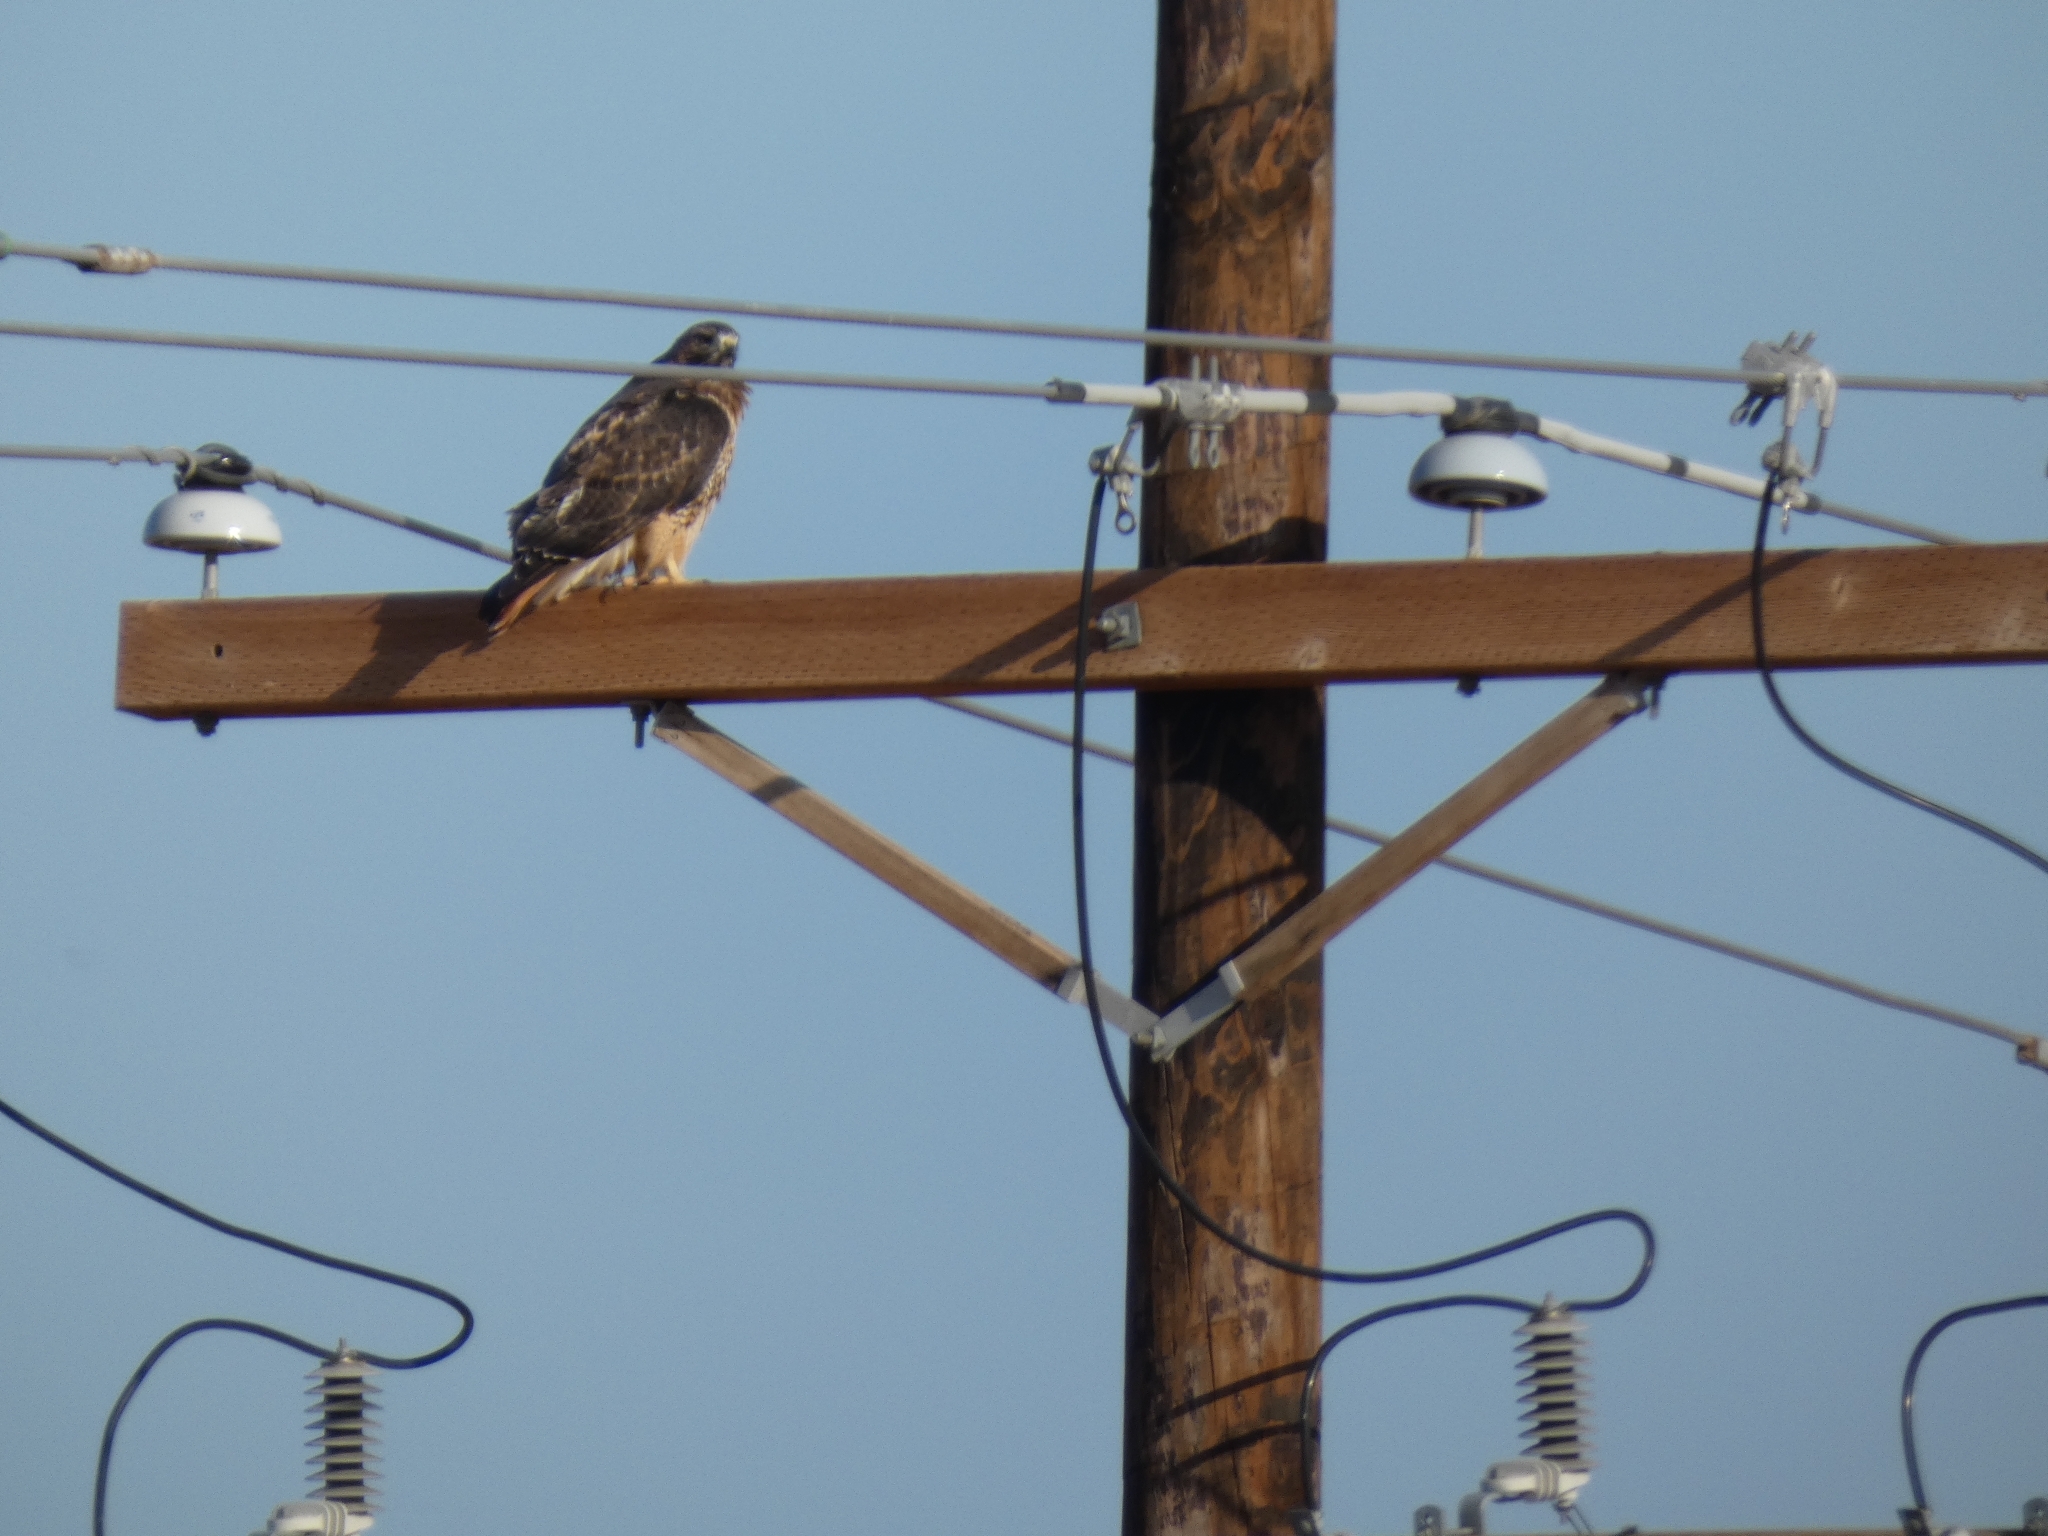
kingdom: Animalia
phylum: Chordata
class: Aves
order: Accipitriformes
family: Accipitridae
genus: Buteo
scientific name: Buteo jamaicensis
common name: Red-tailed hawk
